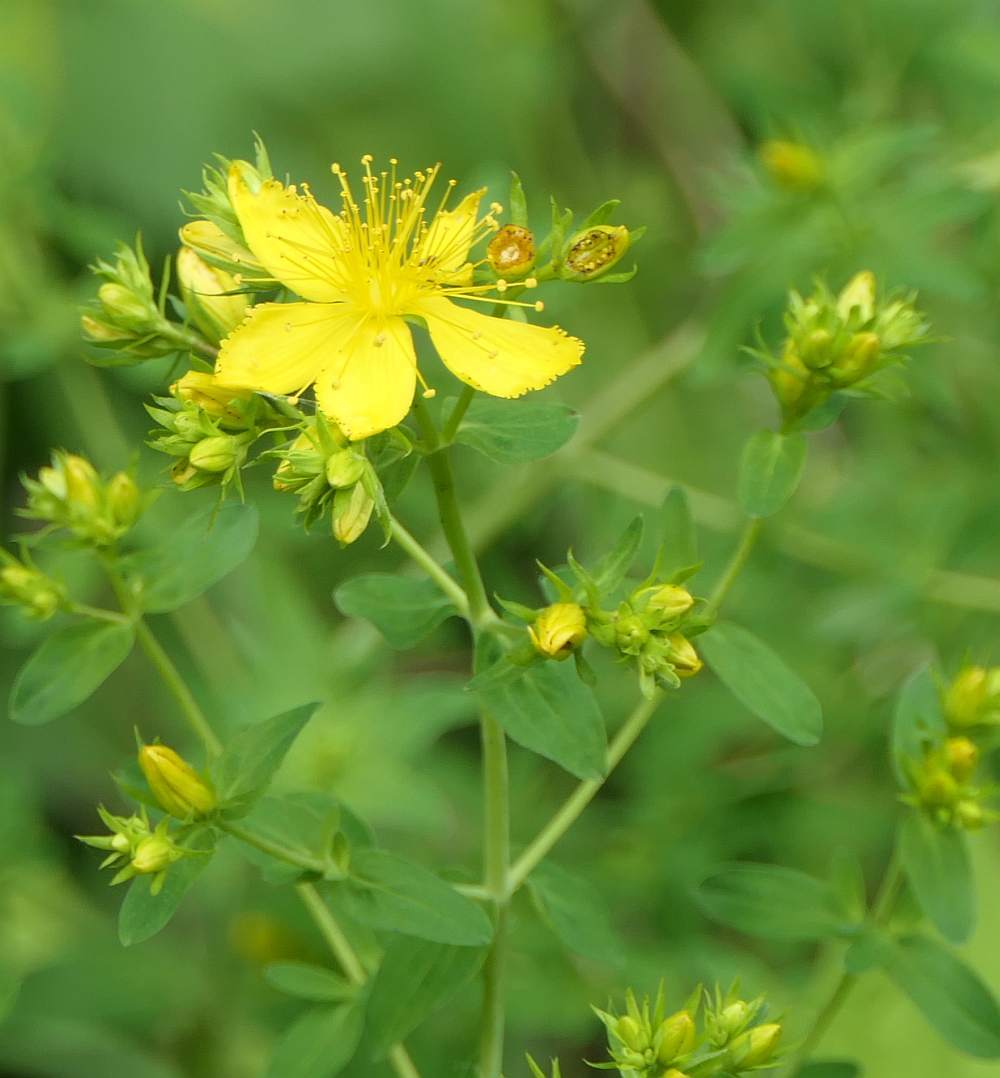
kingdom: Plantae
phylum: Tracheophyta
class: Magnoliopsida
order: Malpighiales
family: Hypericaceae
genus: Hypericum
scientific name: Hypericum perforatum
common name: Common st. johnswort
